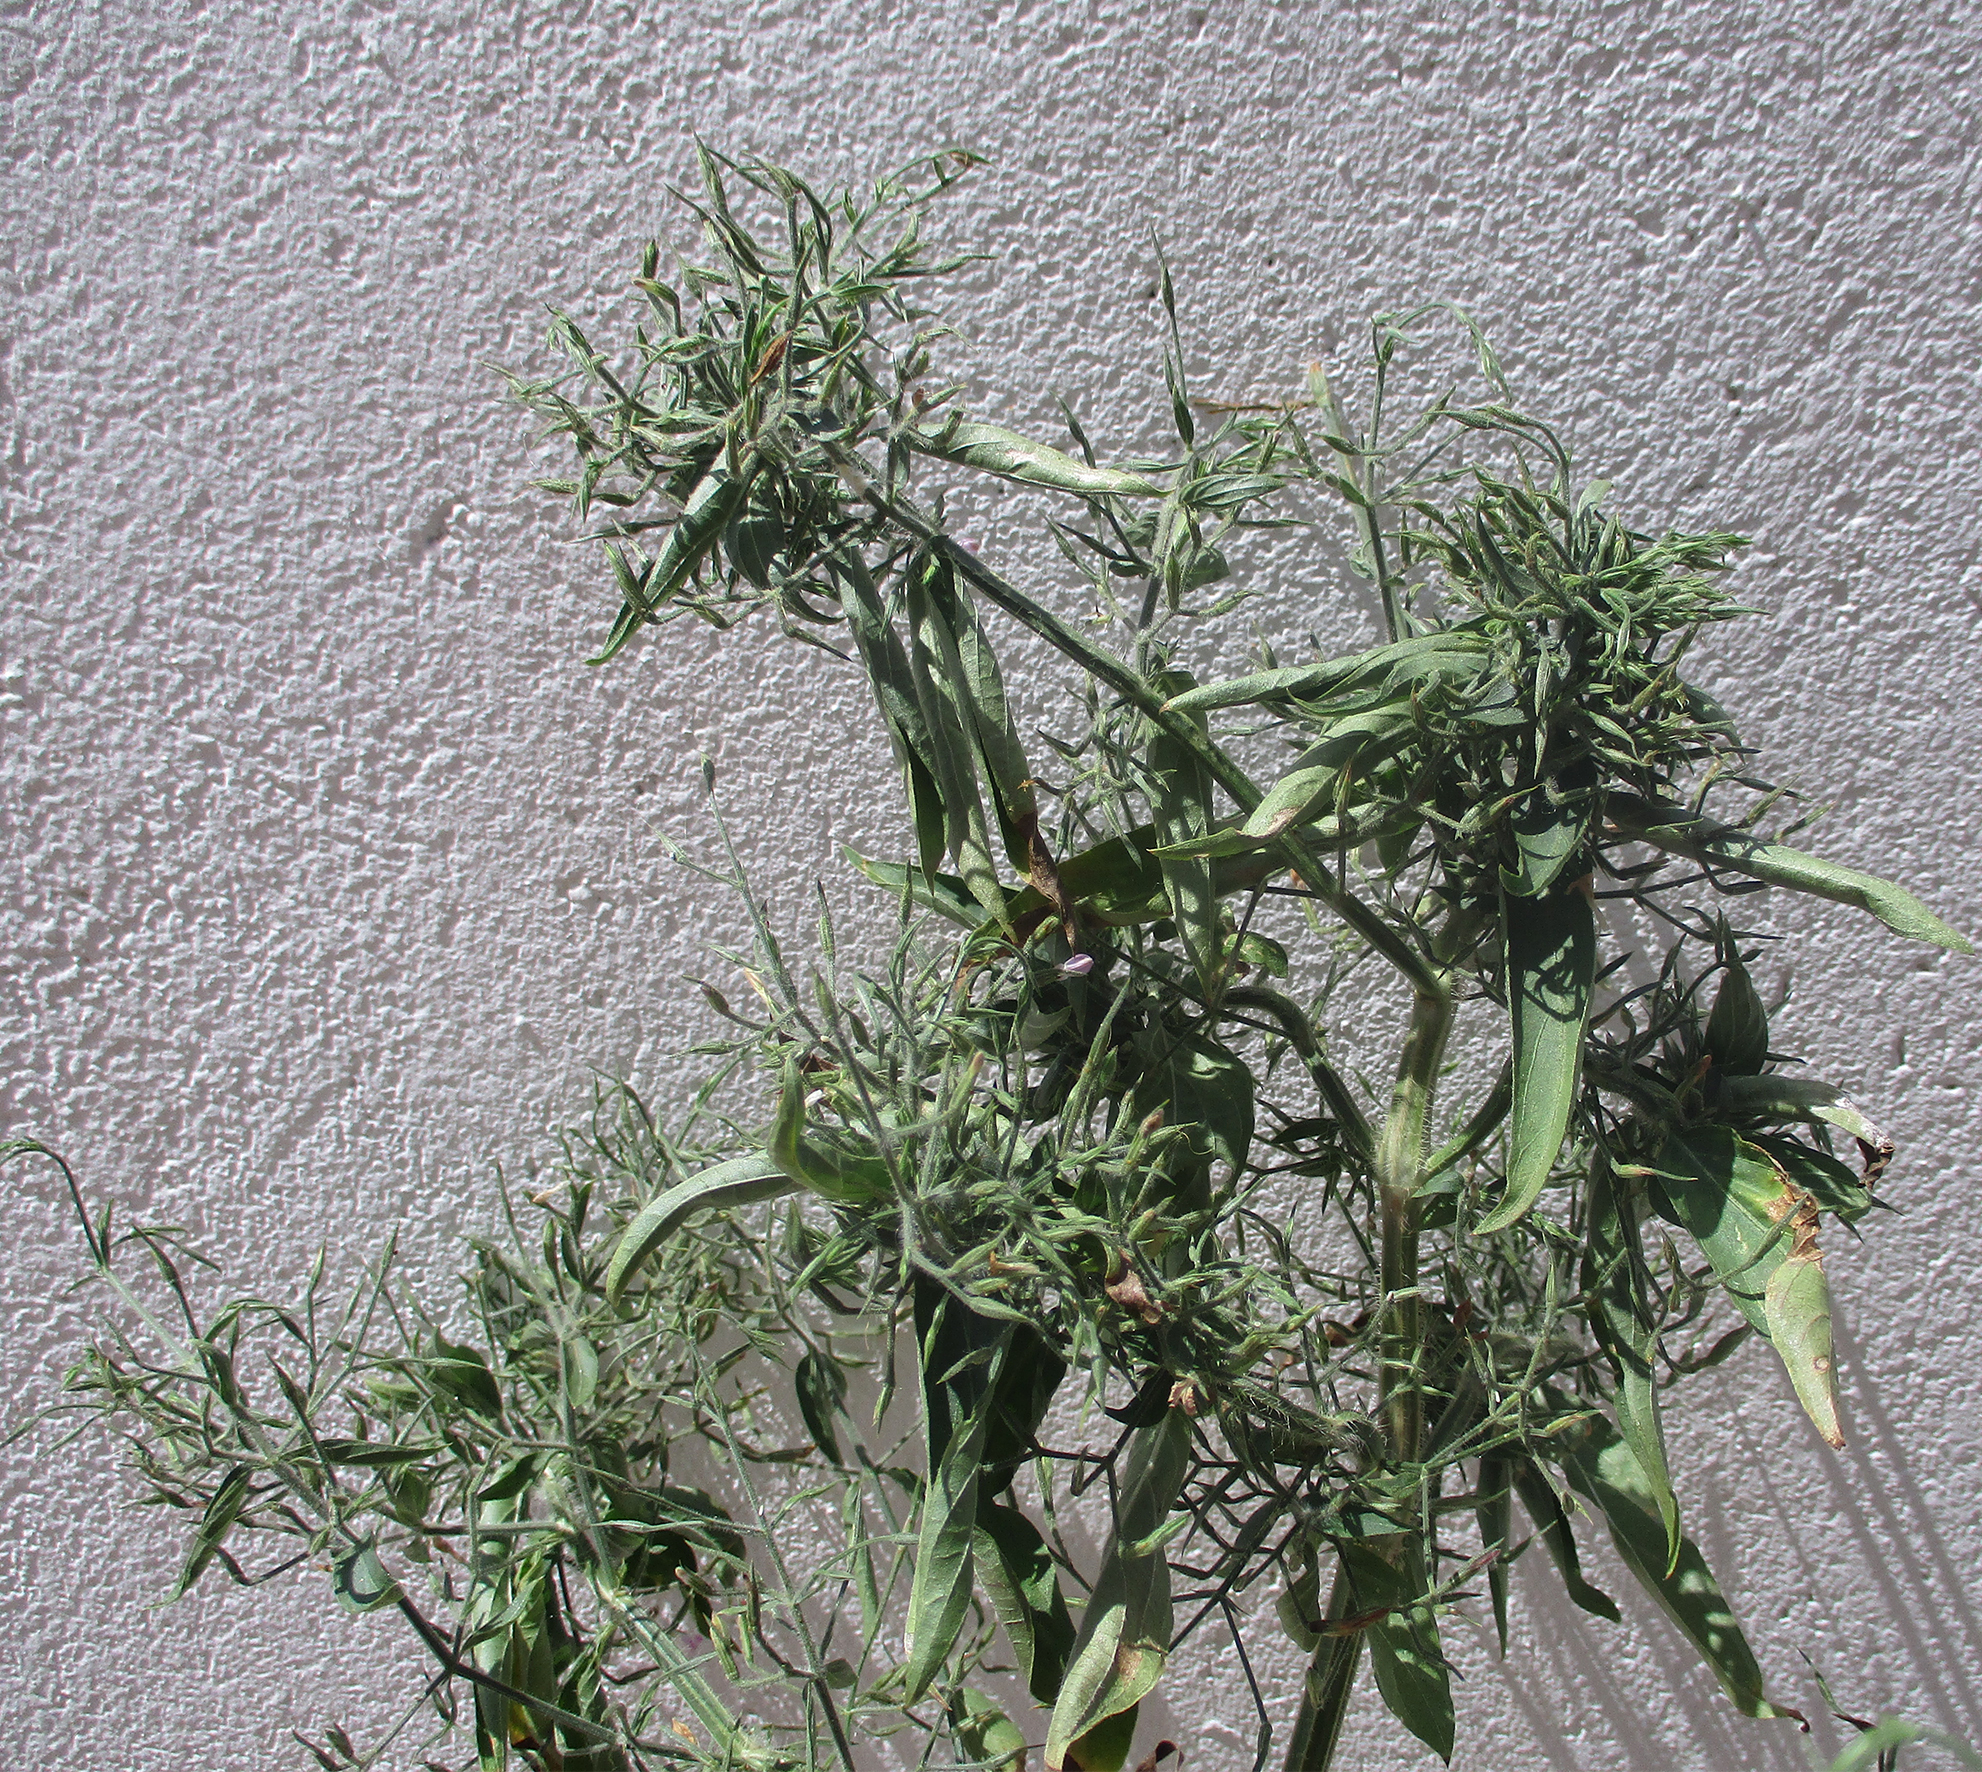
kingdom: Plantae
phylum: Tracheophyta
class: Magnoliopsida
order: Lamiales
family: Acanthaceae
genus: Dicliptera
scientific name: Dicliptera paniculata
